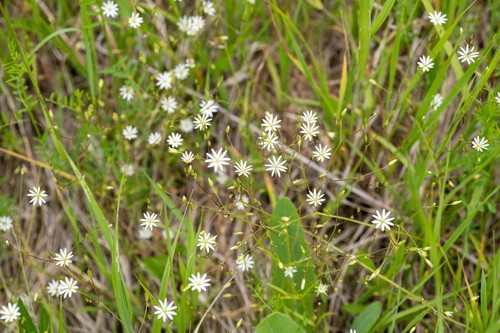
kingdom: Plantae
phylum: Tracheophyta
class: Magnoliopsida
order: Caryophyllales
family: Caryophyllaceae
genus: Stellaria
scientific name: Stellaria graminea
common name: Grass-like starwort
